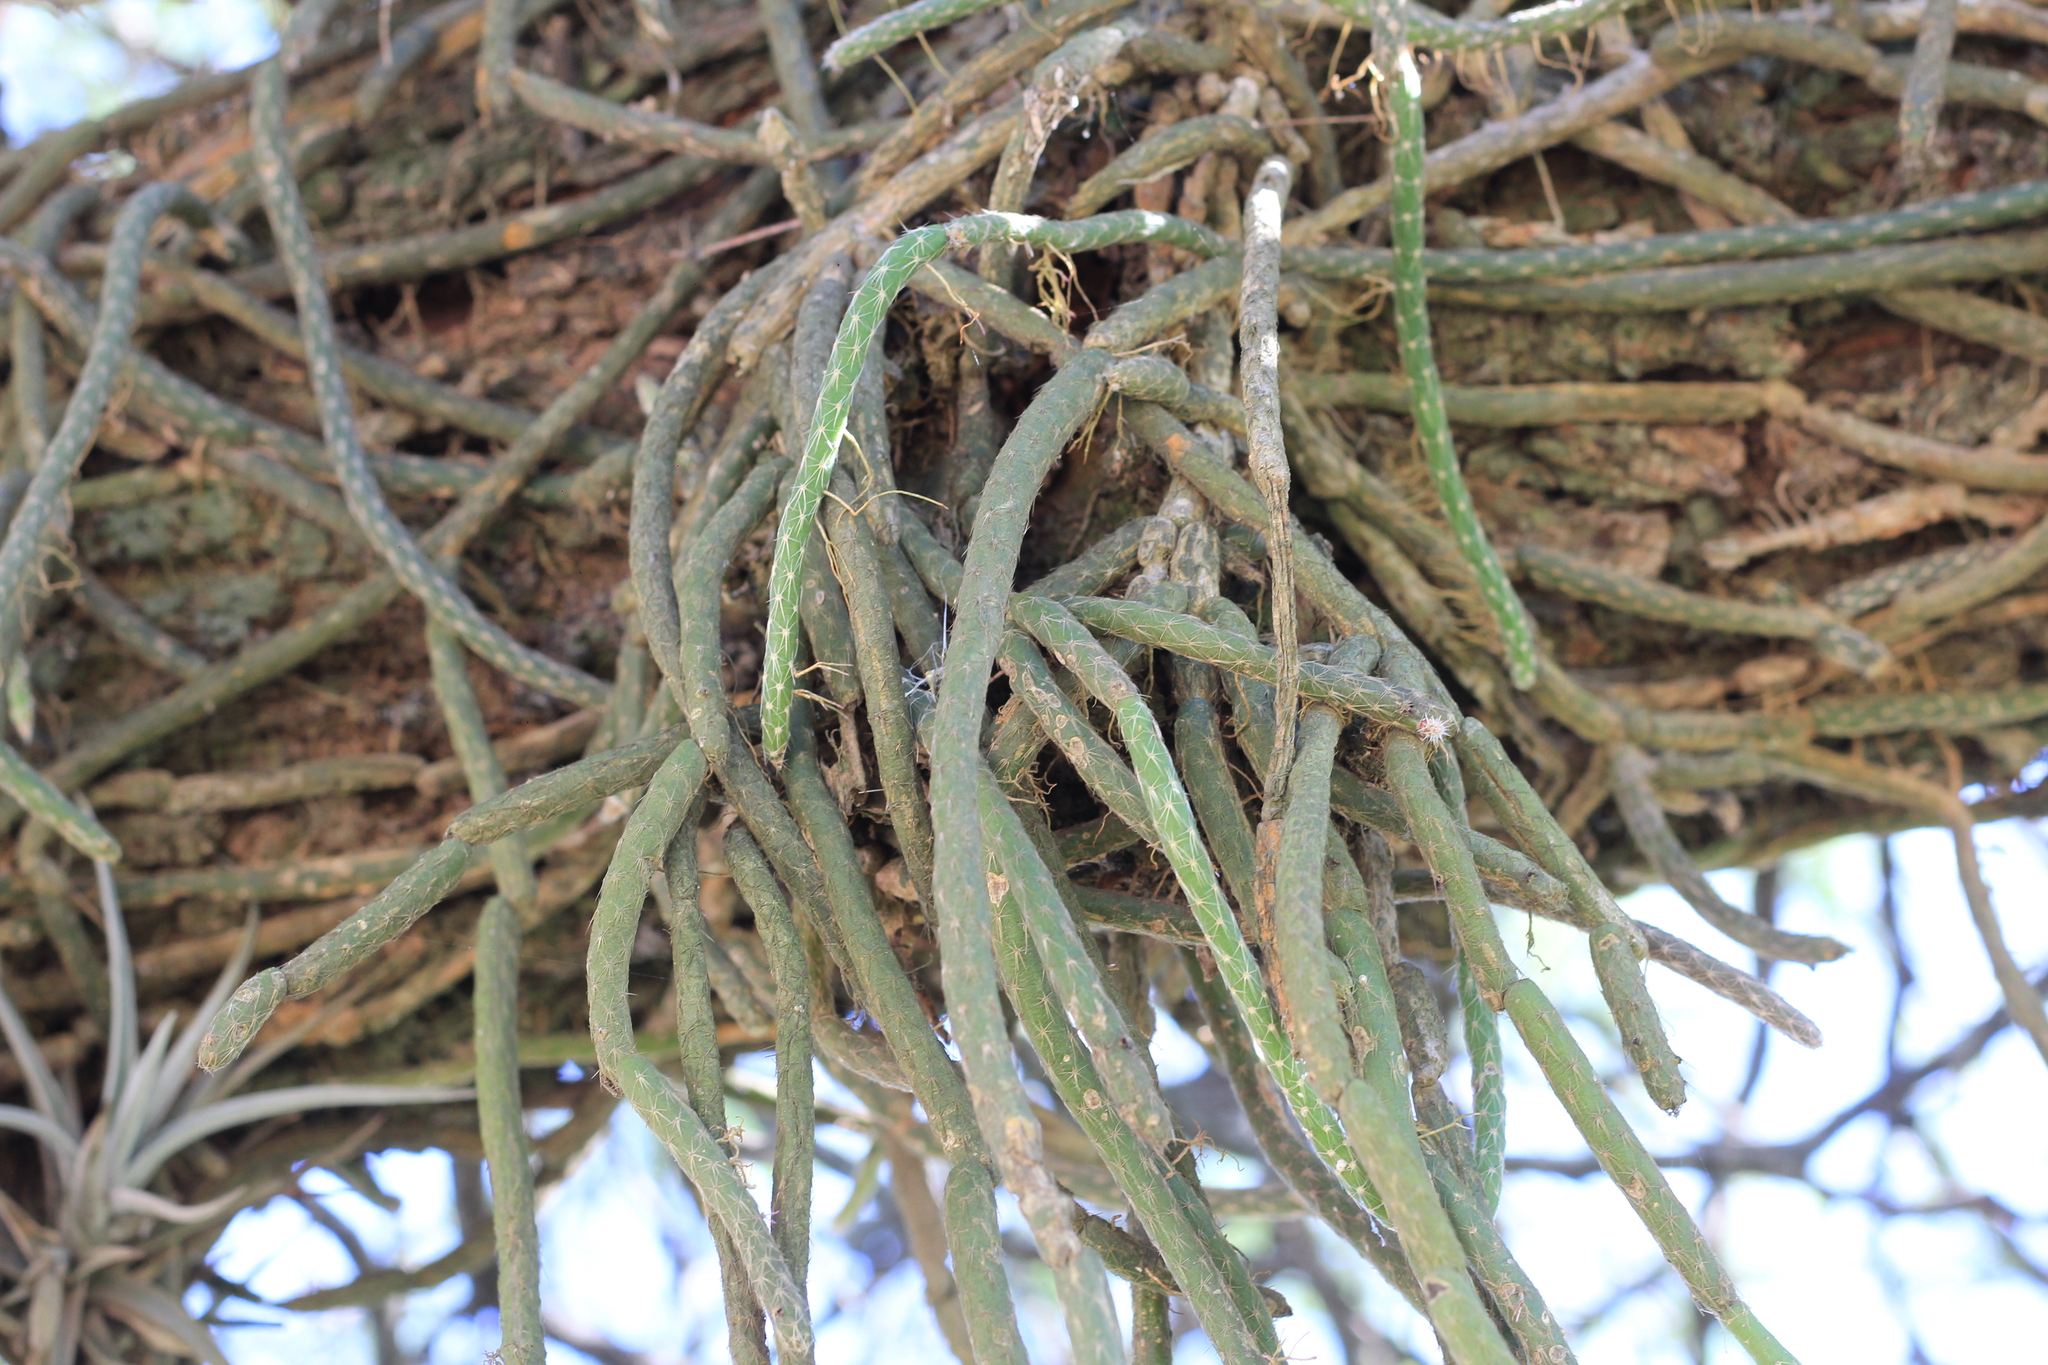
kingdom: Plantae
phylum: Tracheophyta
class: Magnoliopsida
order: Caryophyllales
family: Cactaceae
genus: Lepismium
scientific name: Lepismium lumbricoides
